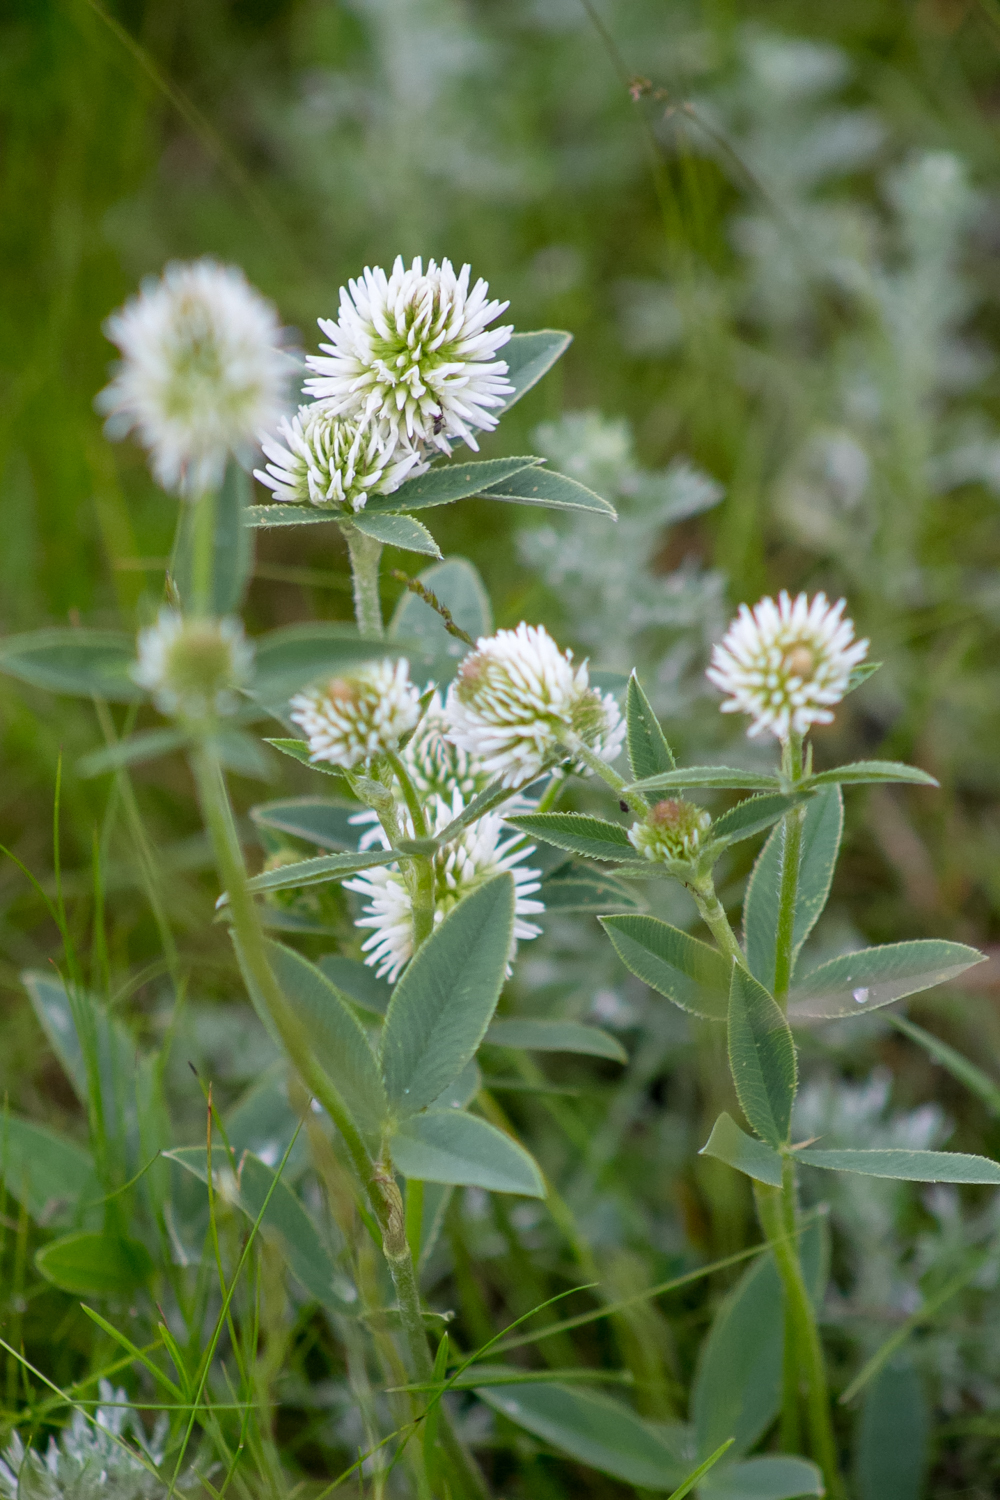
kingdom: Plantae
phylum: Tracheophyta
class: Magnoliopsida
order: Fabales
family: Fabaceae
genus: Trifolium
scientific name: Trifolium montanum
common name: Mountain clover
